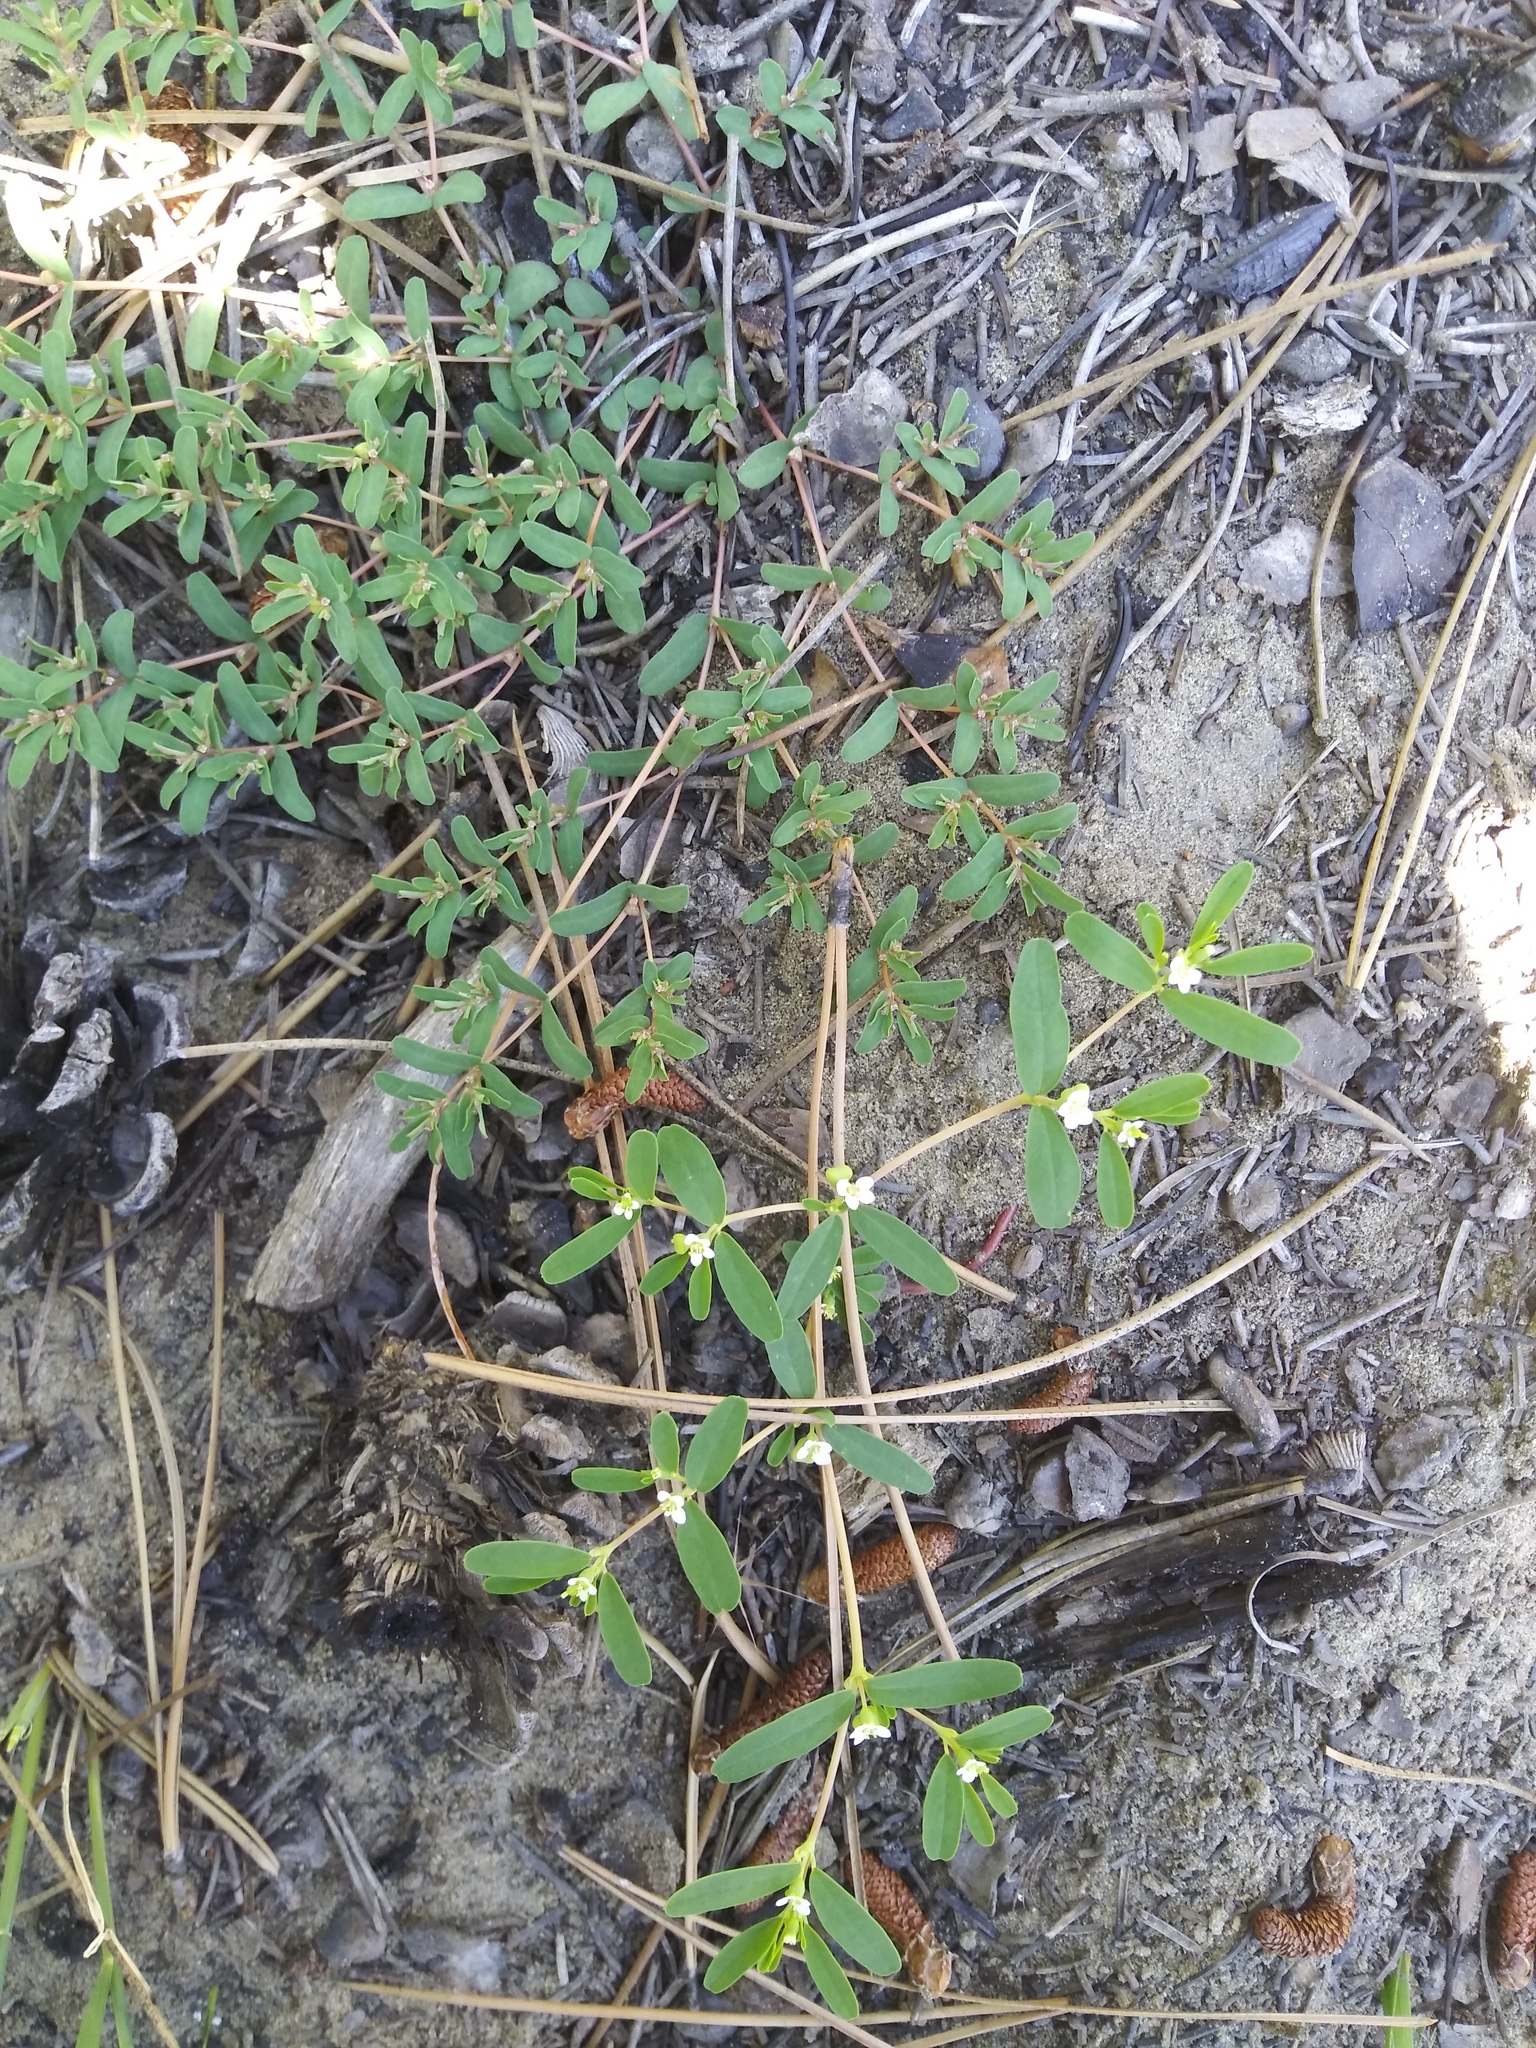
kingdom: Plantae
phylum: Tracheophyta
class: Magnoliopsida
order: Malpighiales
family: Euphorbiaceae
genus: Euphorbia
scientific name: Euphorbia missurica
